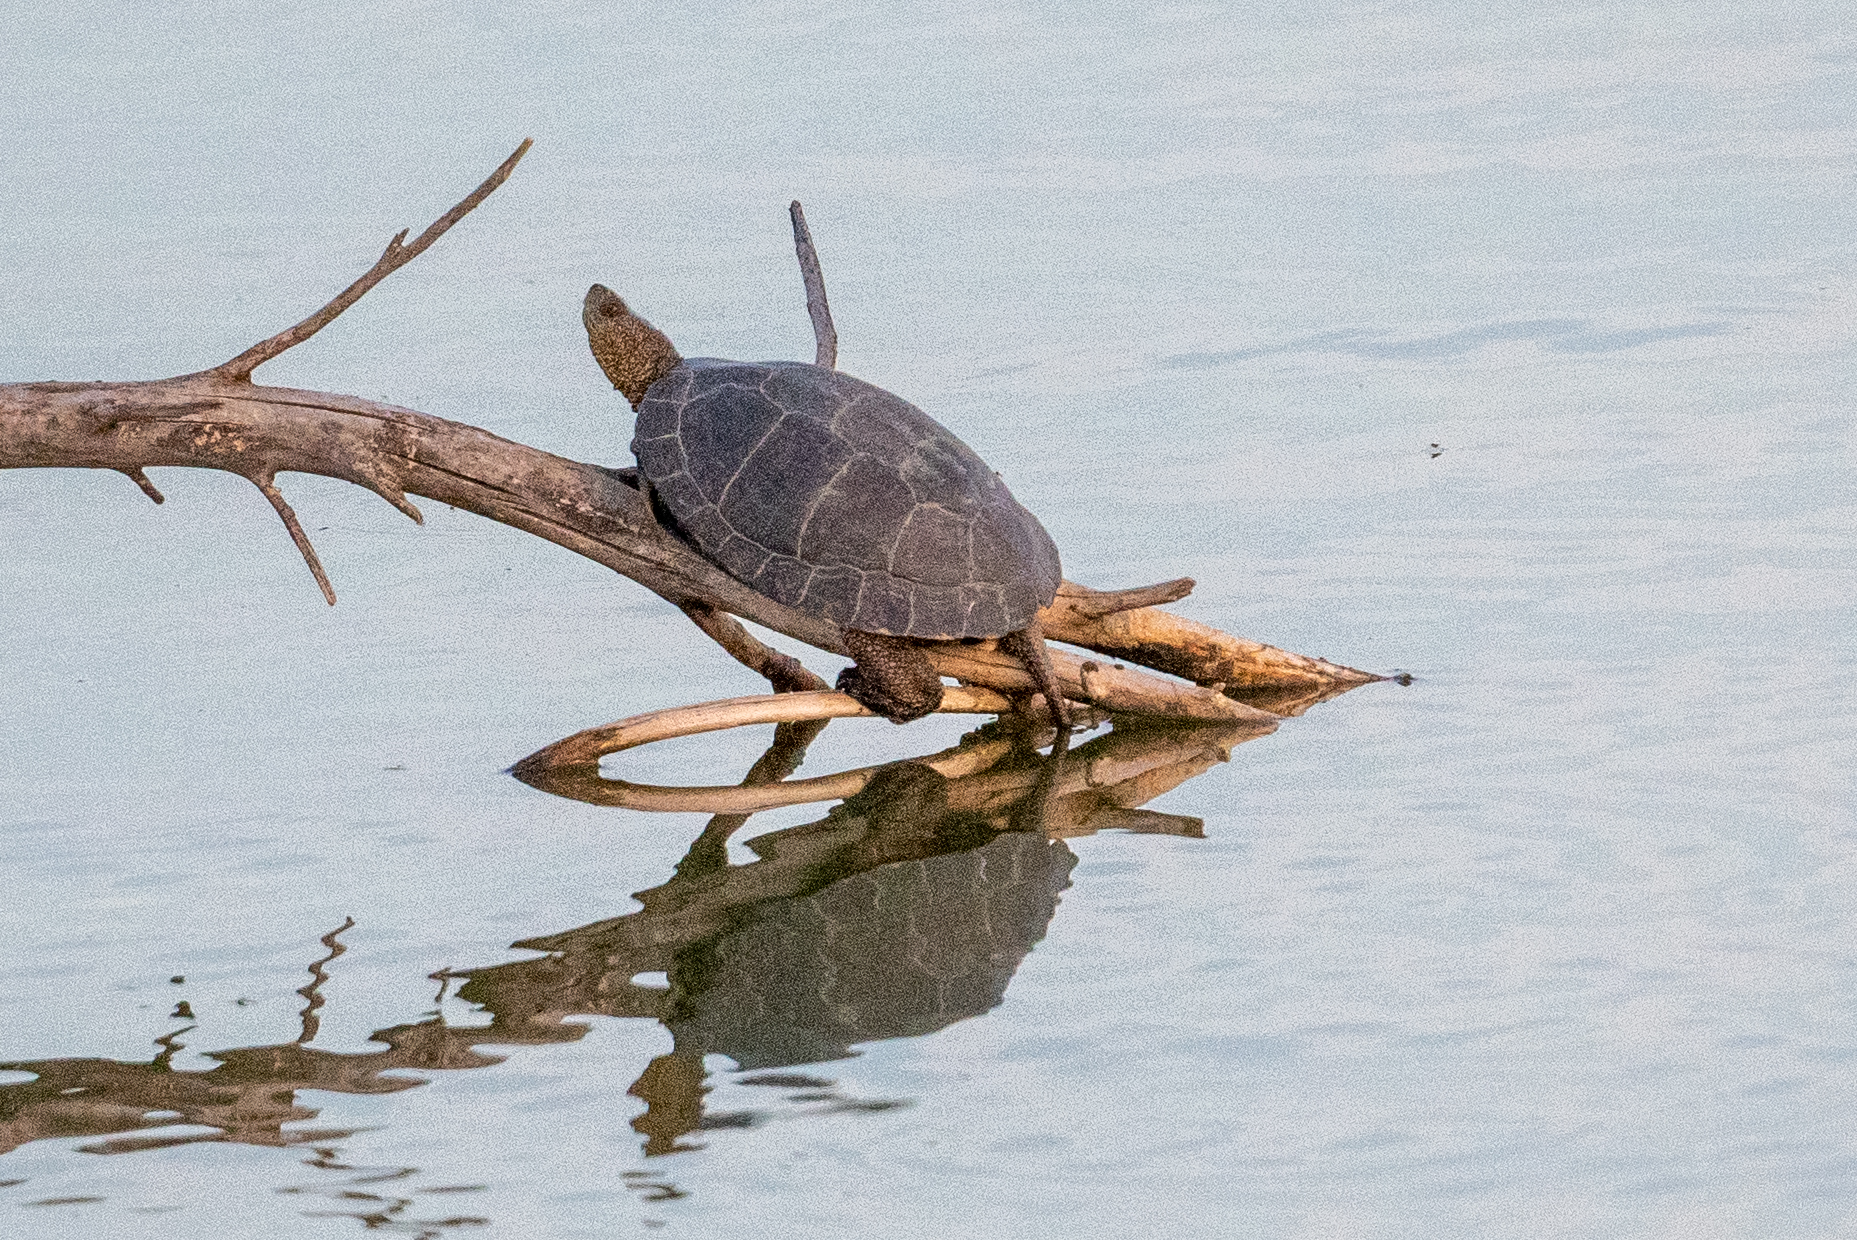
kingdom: Animalia
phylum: Chordata
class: Testudines
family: Emydidae
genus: Actinemys
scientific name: Actinemys marmorata
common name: Western pond turtle
